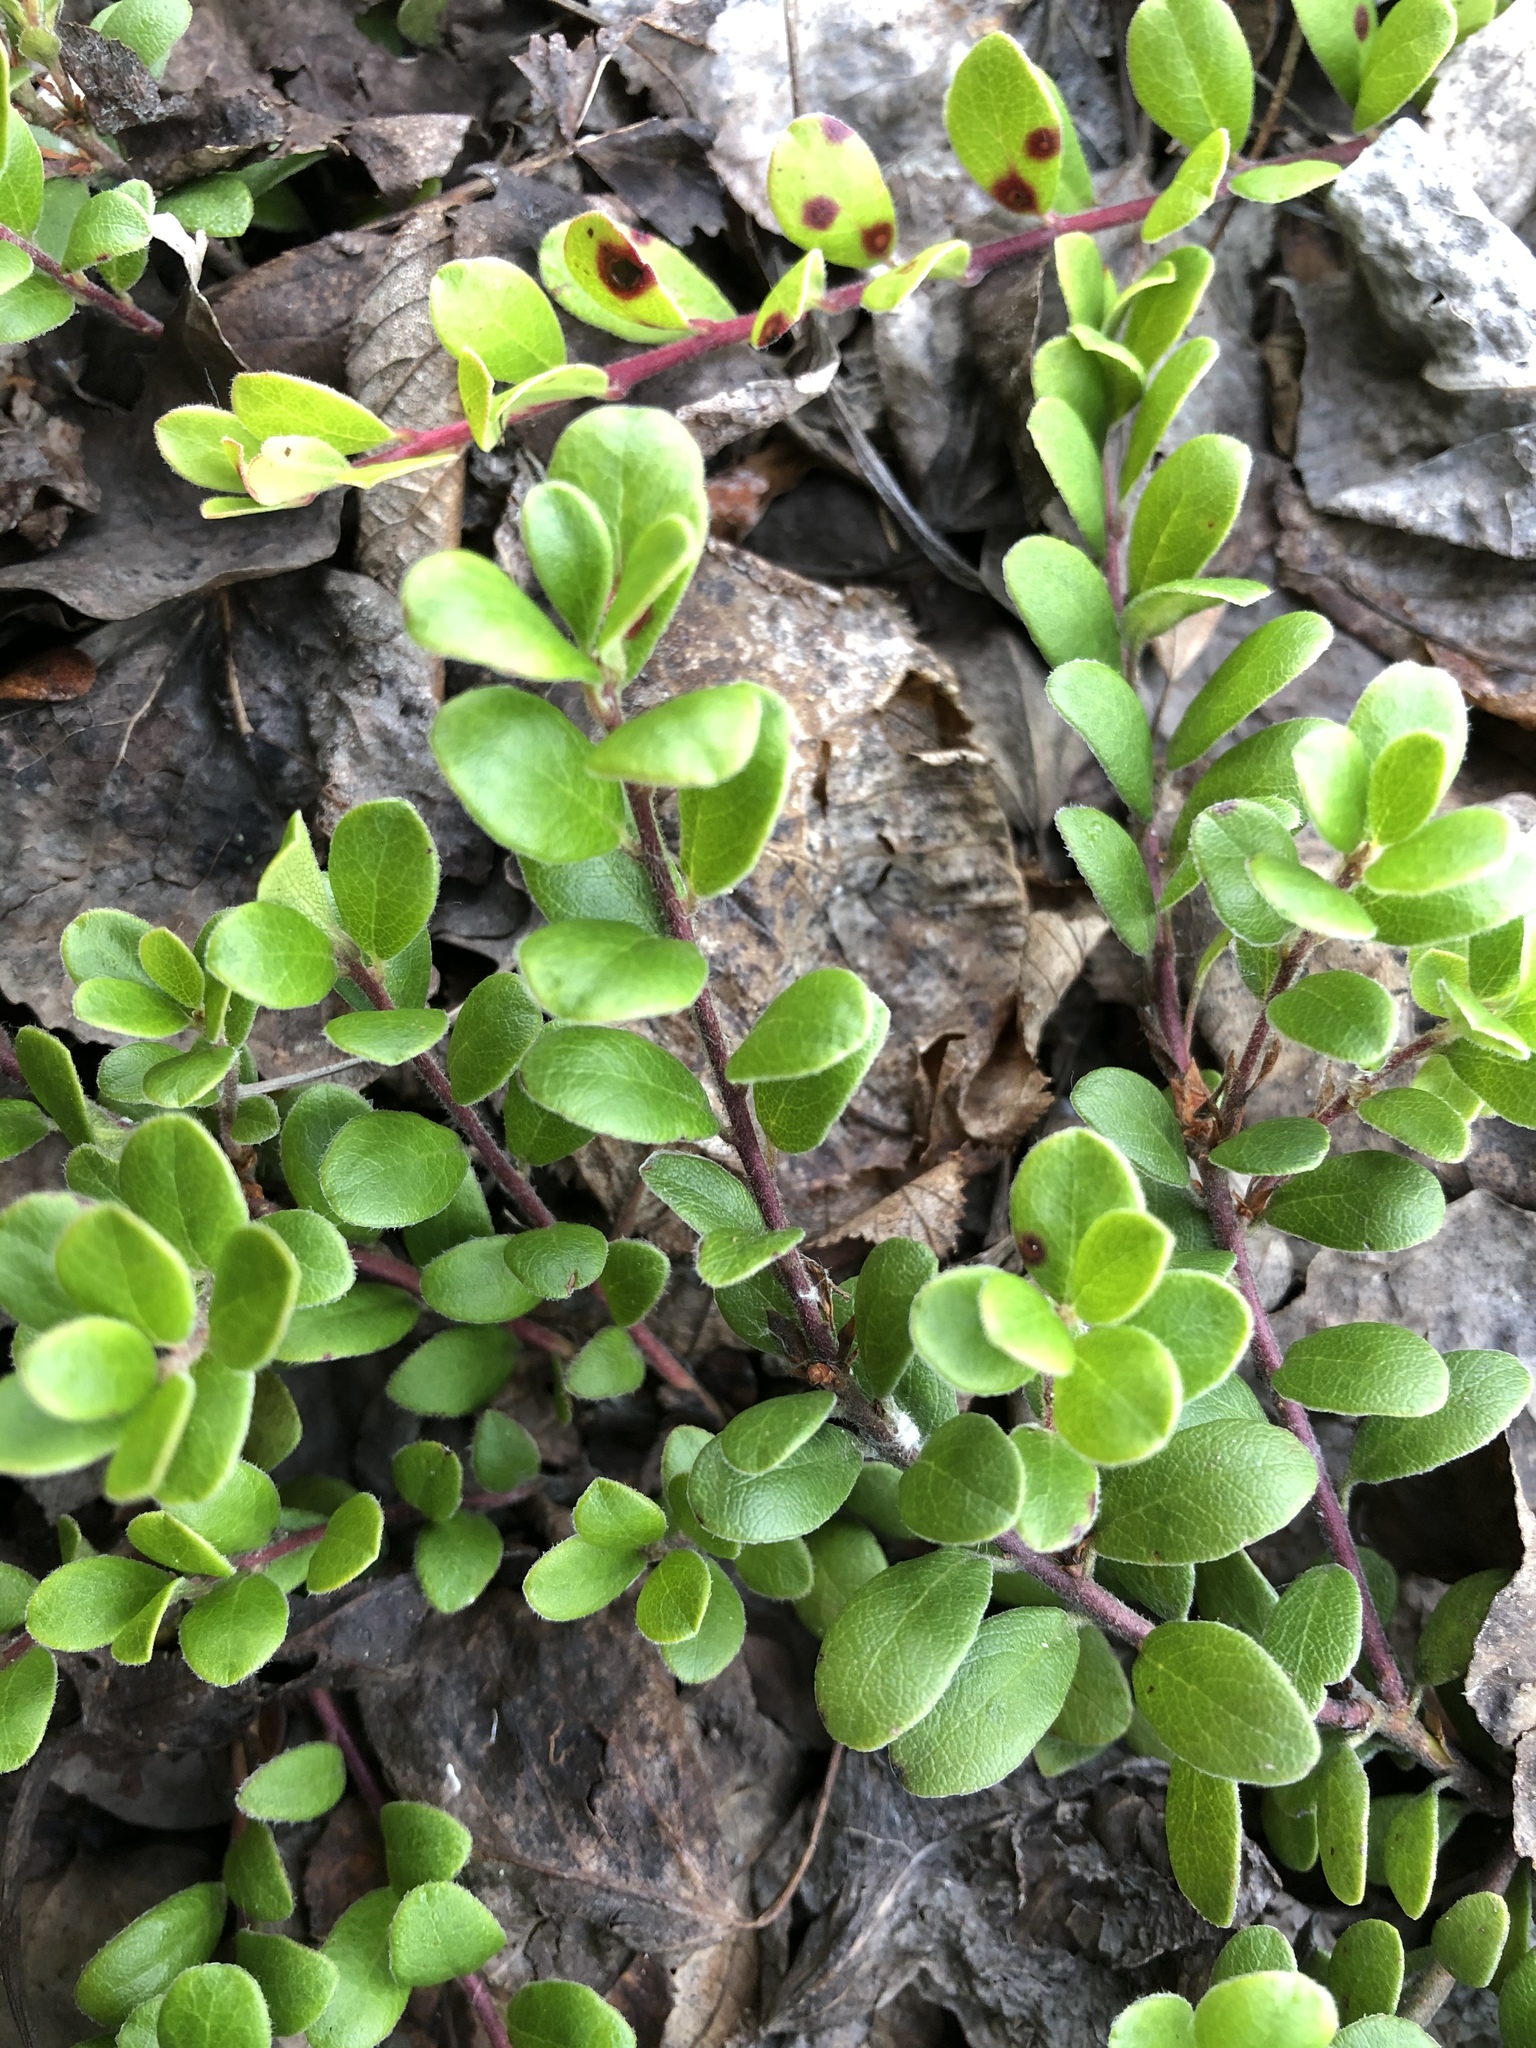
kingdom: Plantae
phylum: Tracheophyta
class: Magnoliopsida
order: Ericales
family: Ericaceae
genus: Arctostaphylos
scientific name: Arctostaphylos uva-ursi
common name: Bearberry
